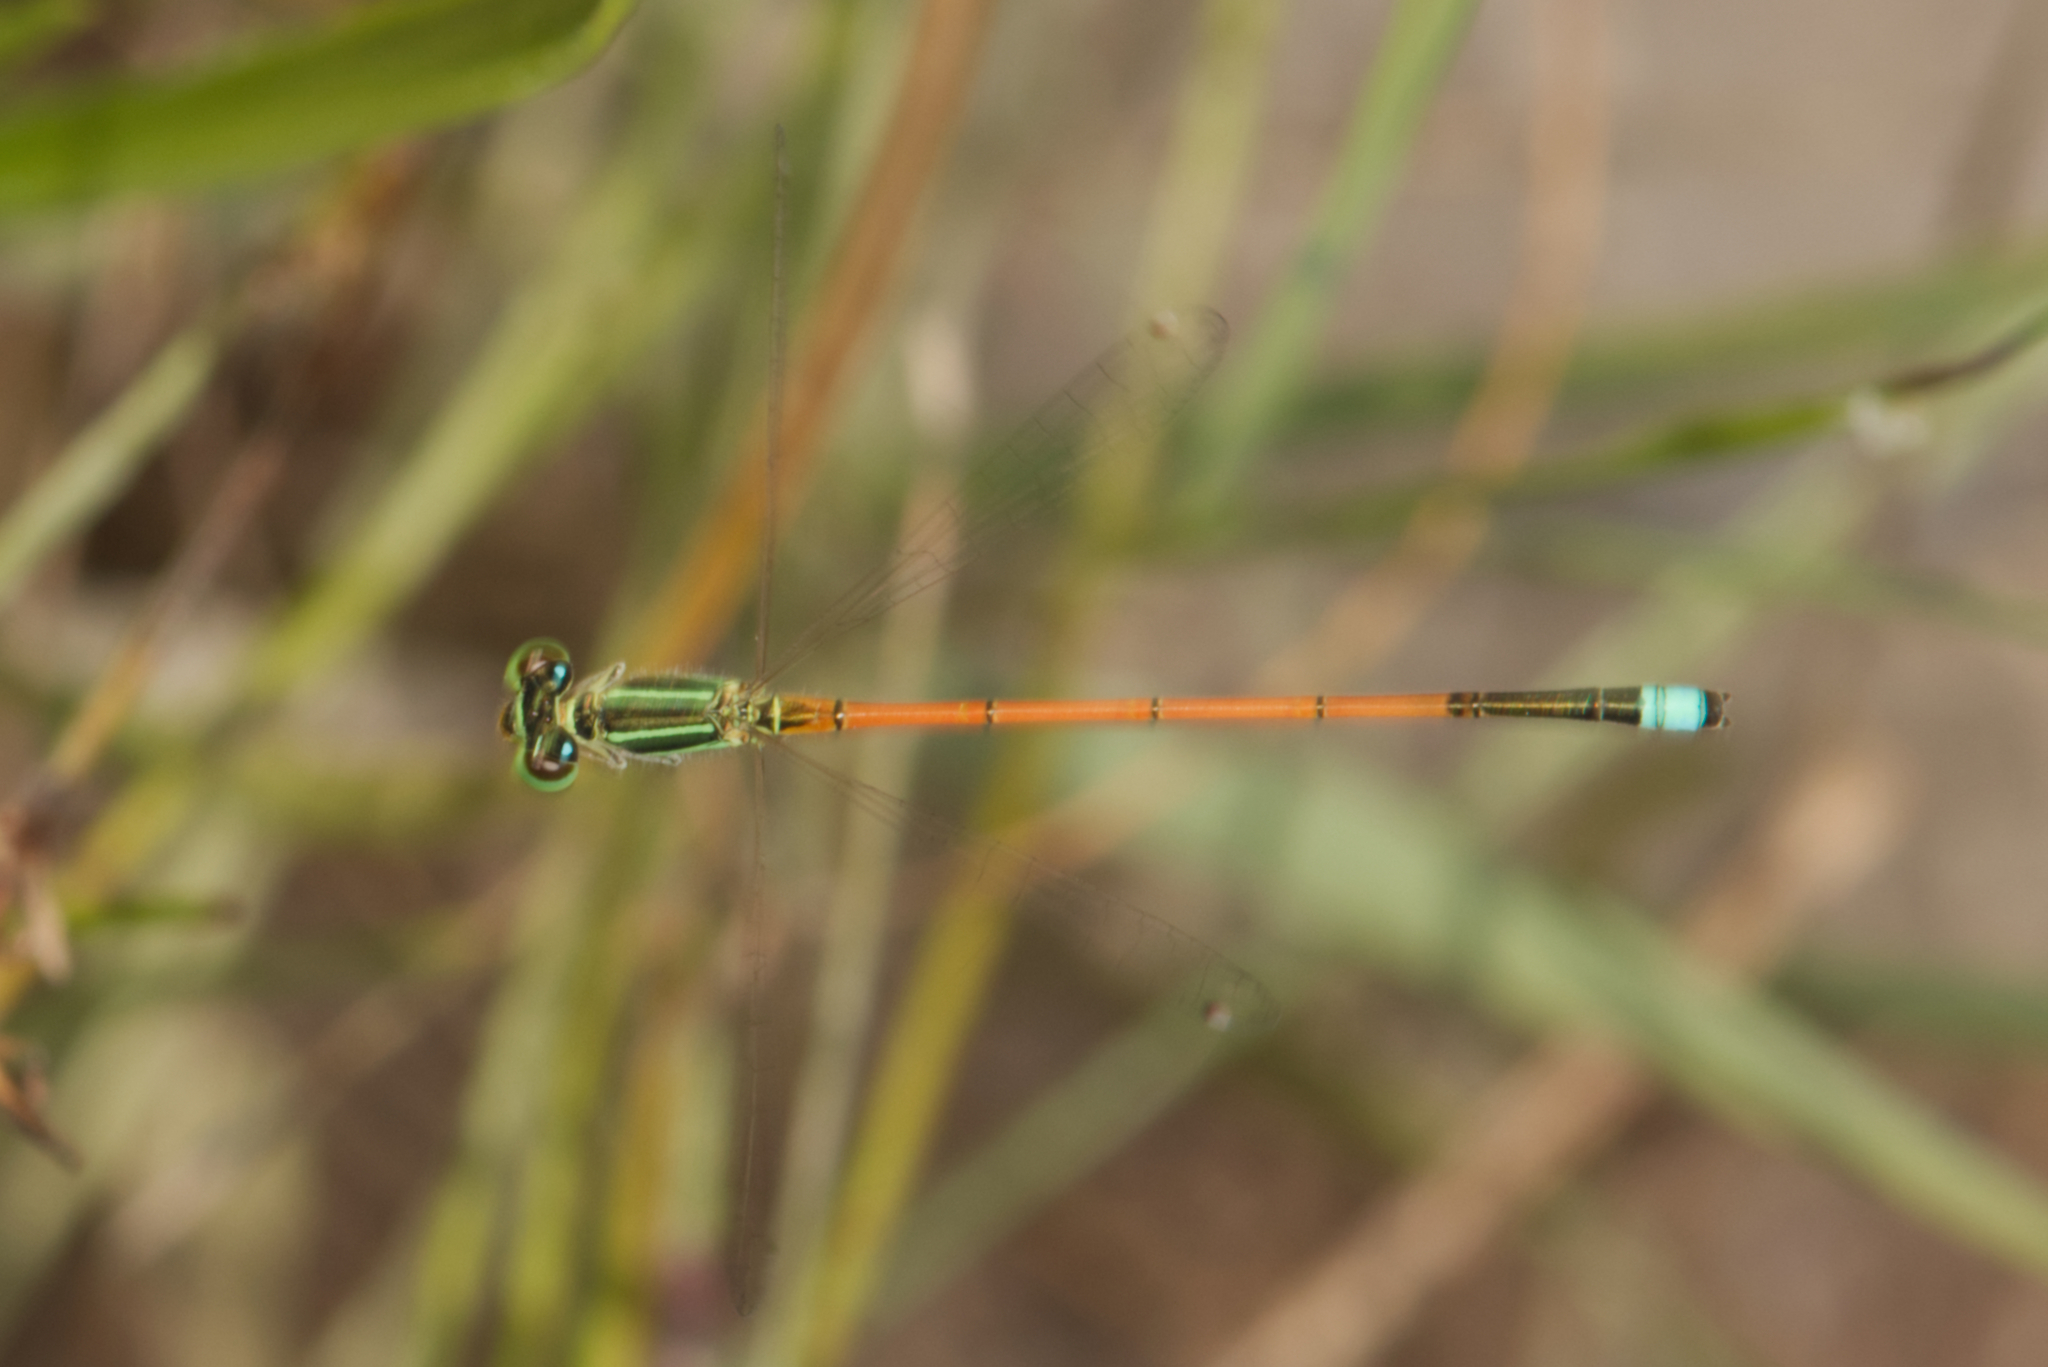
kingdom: Animalia
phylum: Arthropoda
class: Insecta
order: Odonata
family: Coenagrionidae
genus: Ischnura
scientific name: Ischnura aurora
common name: Gossamer damselfly
